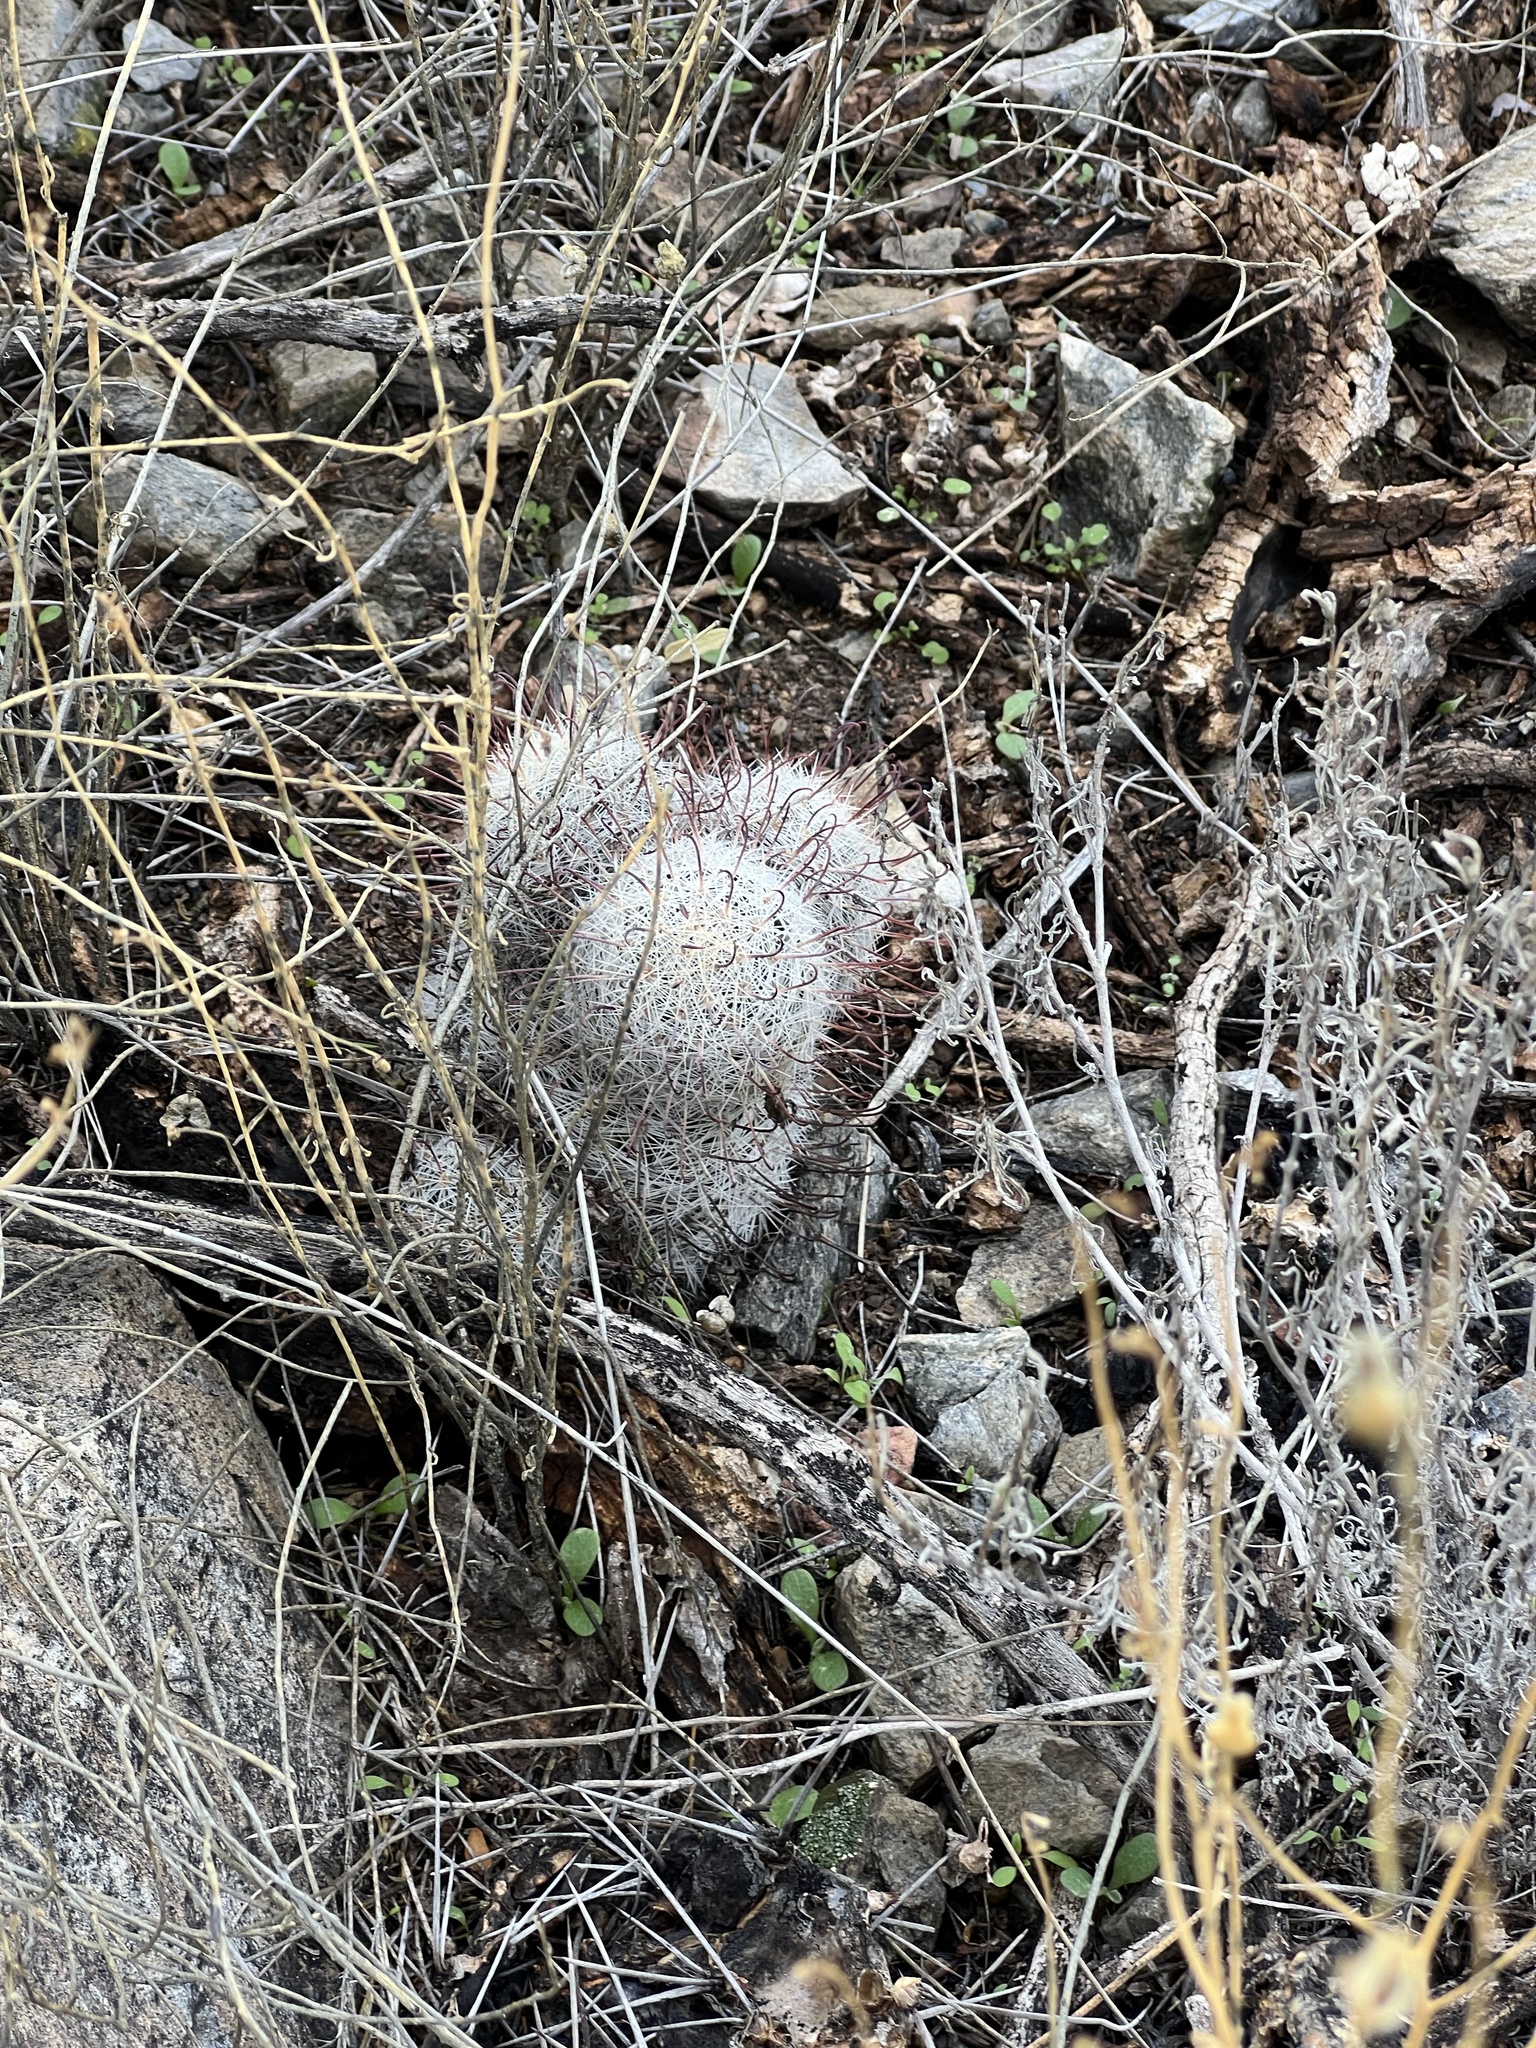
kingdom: Plantae
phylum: Tracheophyta
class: Magnoliopsida
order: Caryophyllales
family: Cactaceae
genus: Cochemiea
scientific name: Cochemiea grahamii
